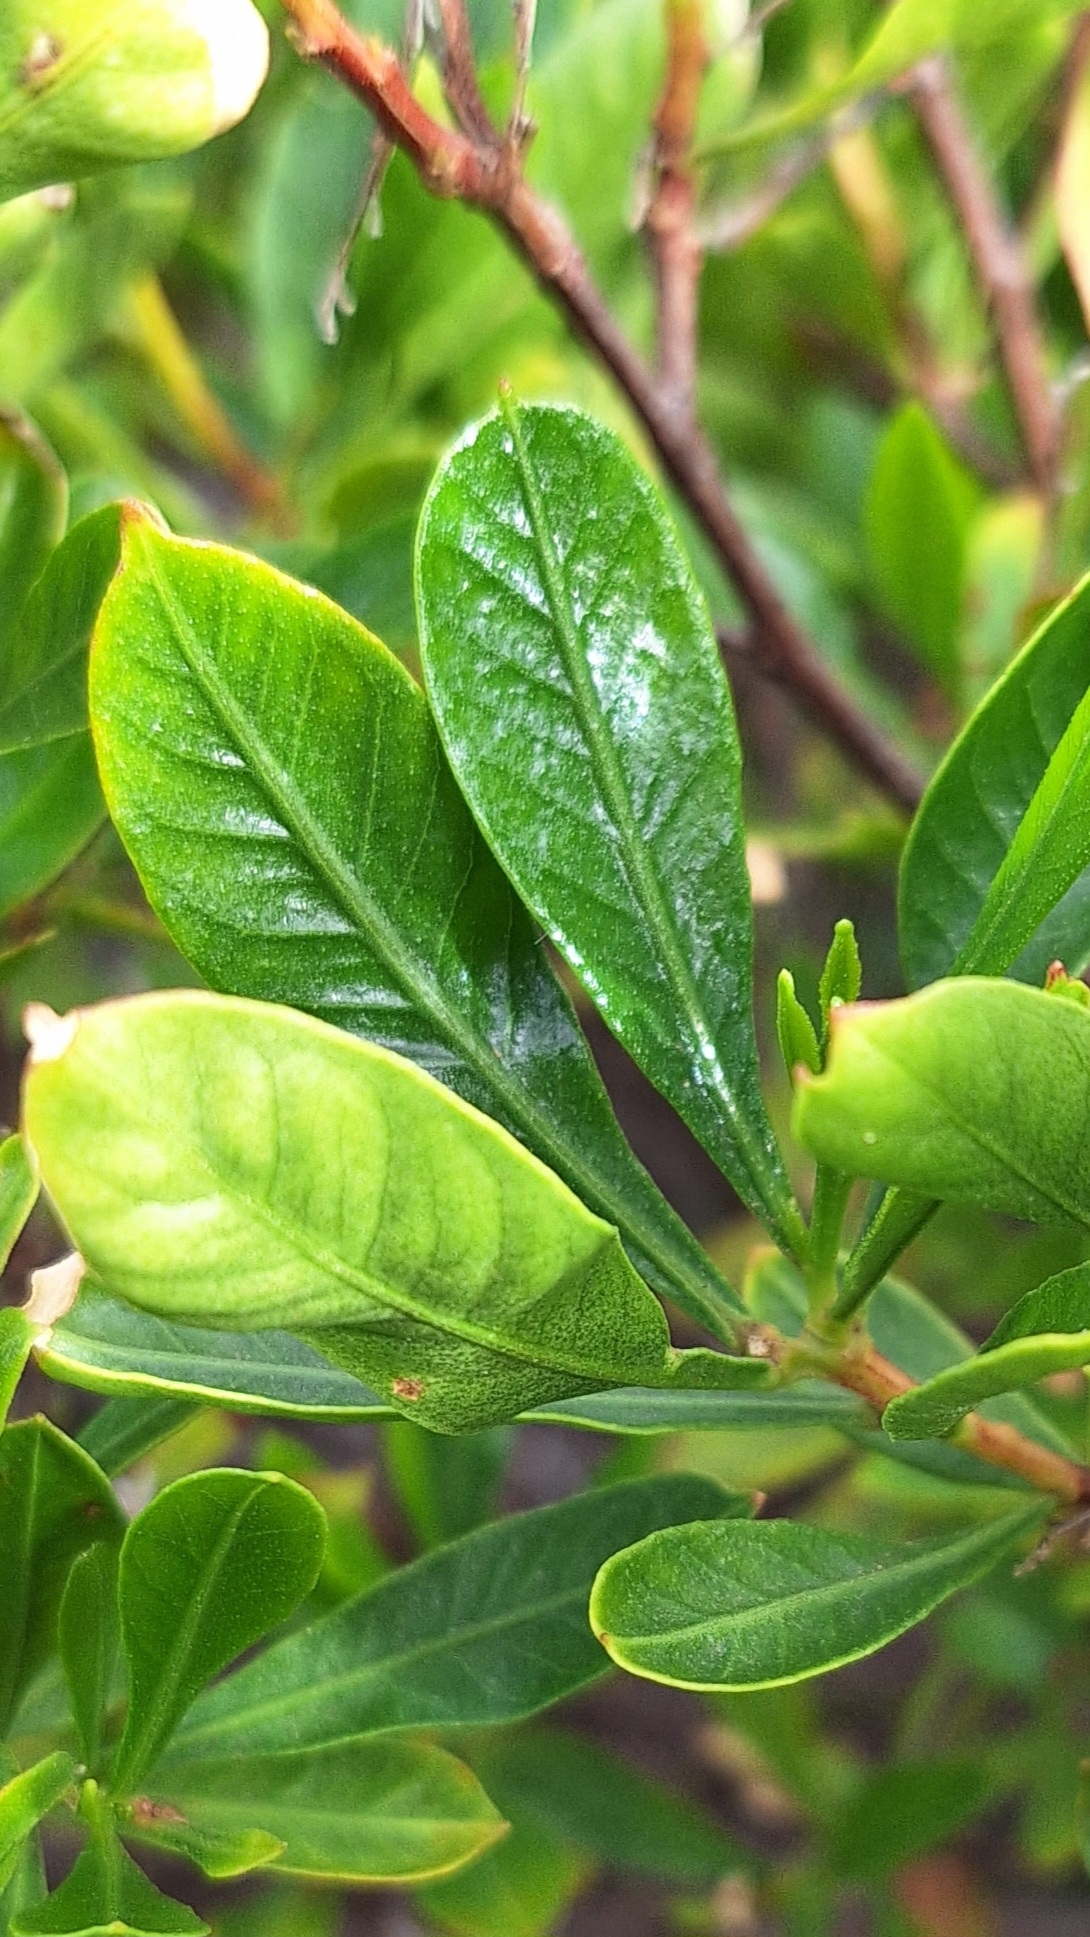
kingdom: Plantae
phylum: Tracheophyta
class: Magnoliopsida
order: Sapindales
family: Sapindaceae
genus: Dodonaea
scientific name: Dodonaea viscosa
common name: Hopbush
